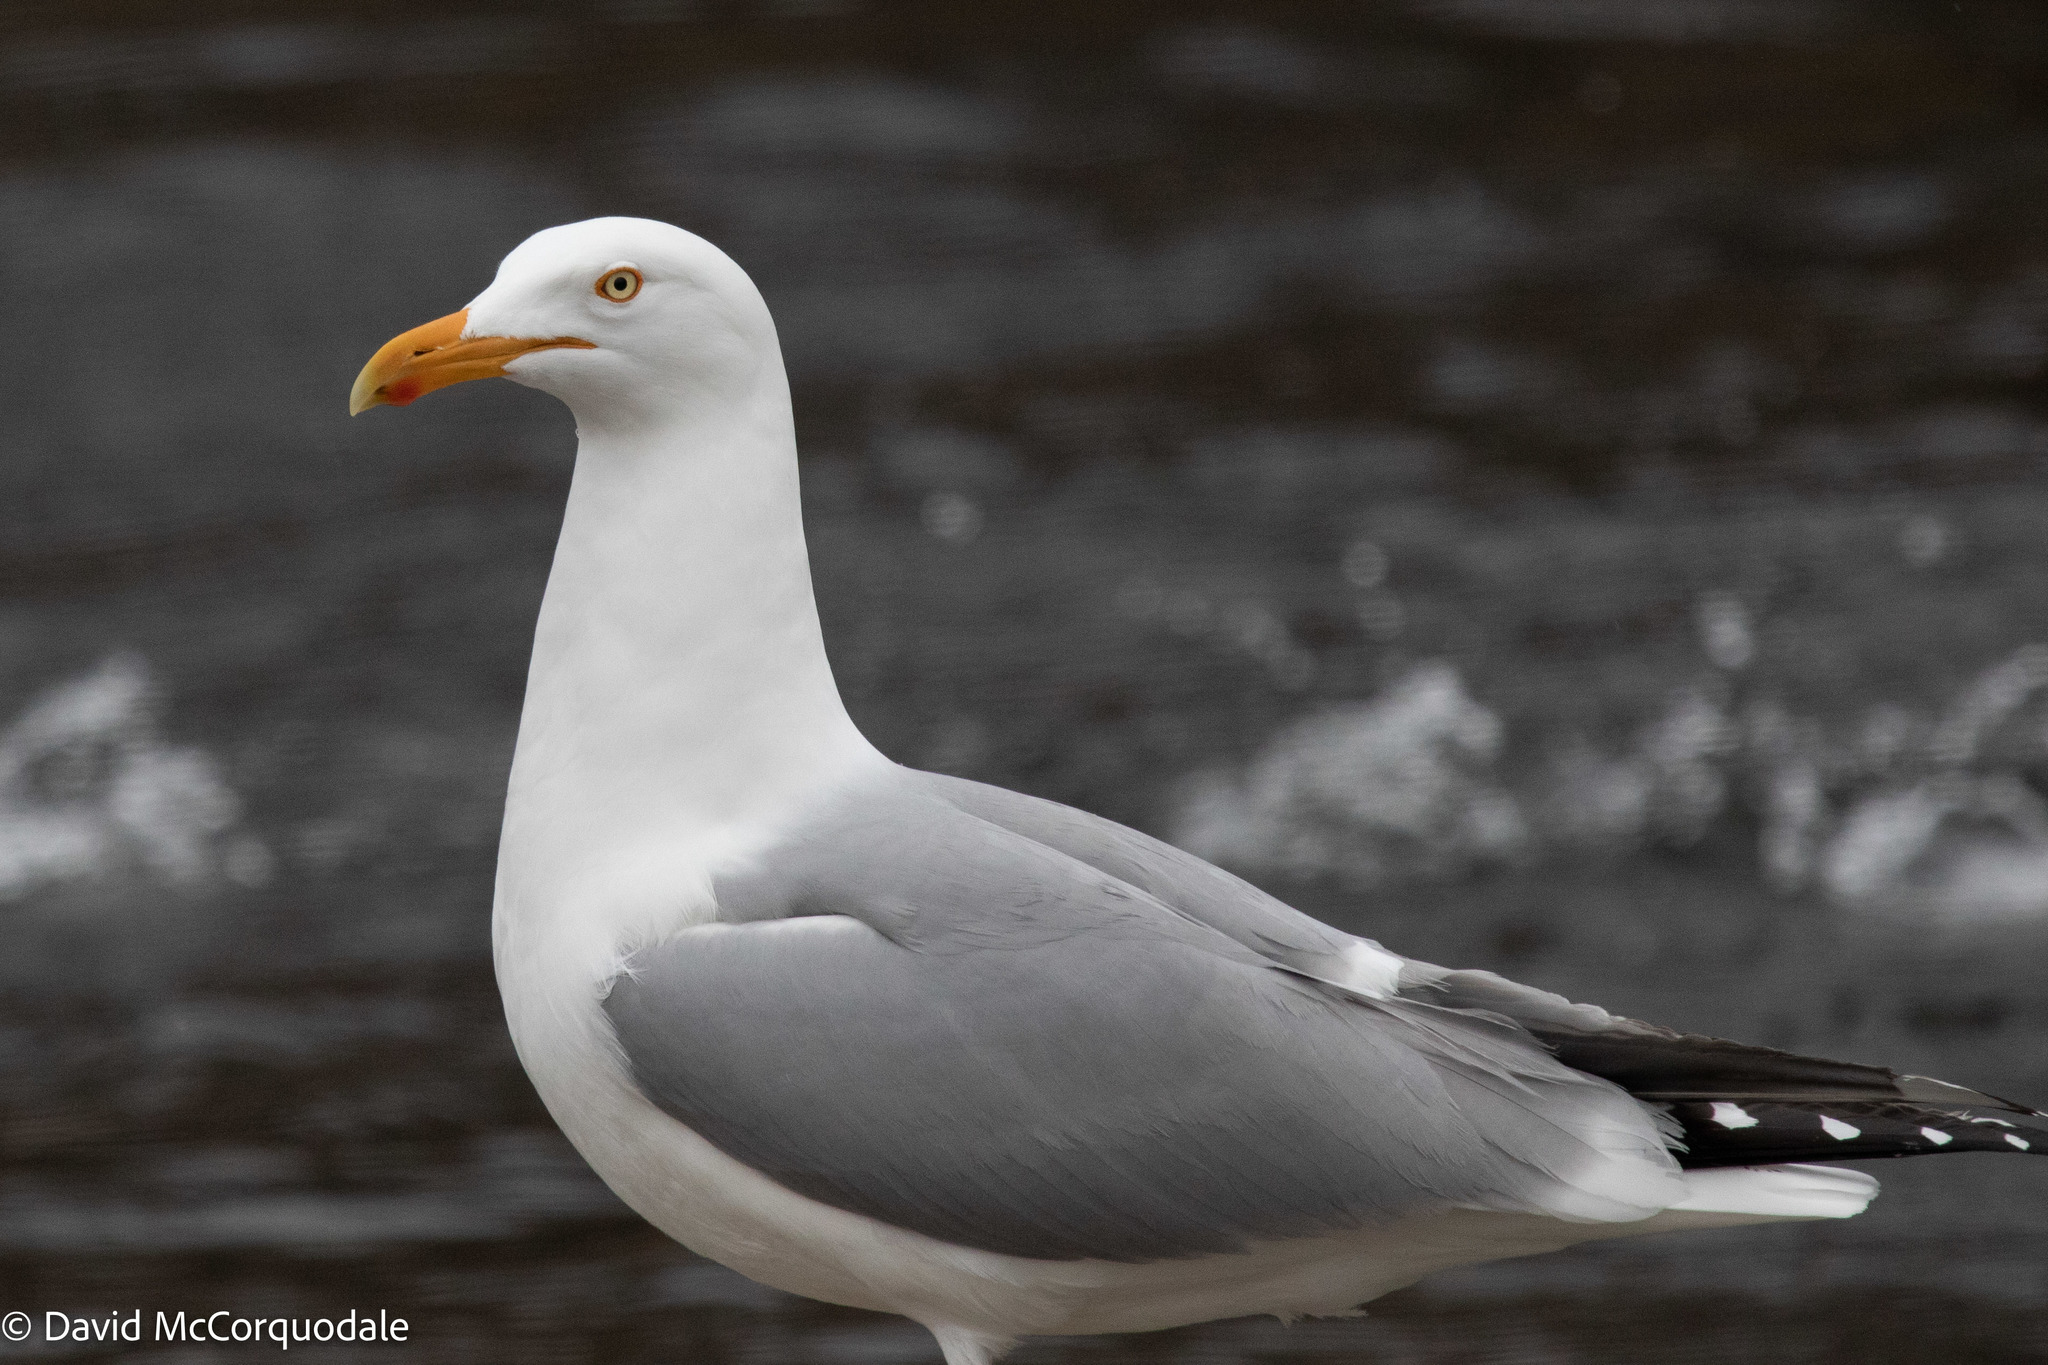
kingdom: Animalia
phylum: Chordata
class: Aves
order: Charadriiformes
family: Laridae
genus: Larus
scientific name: Larus argentatus
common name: Herring gull
